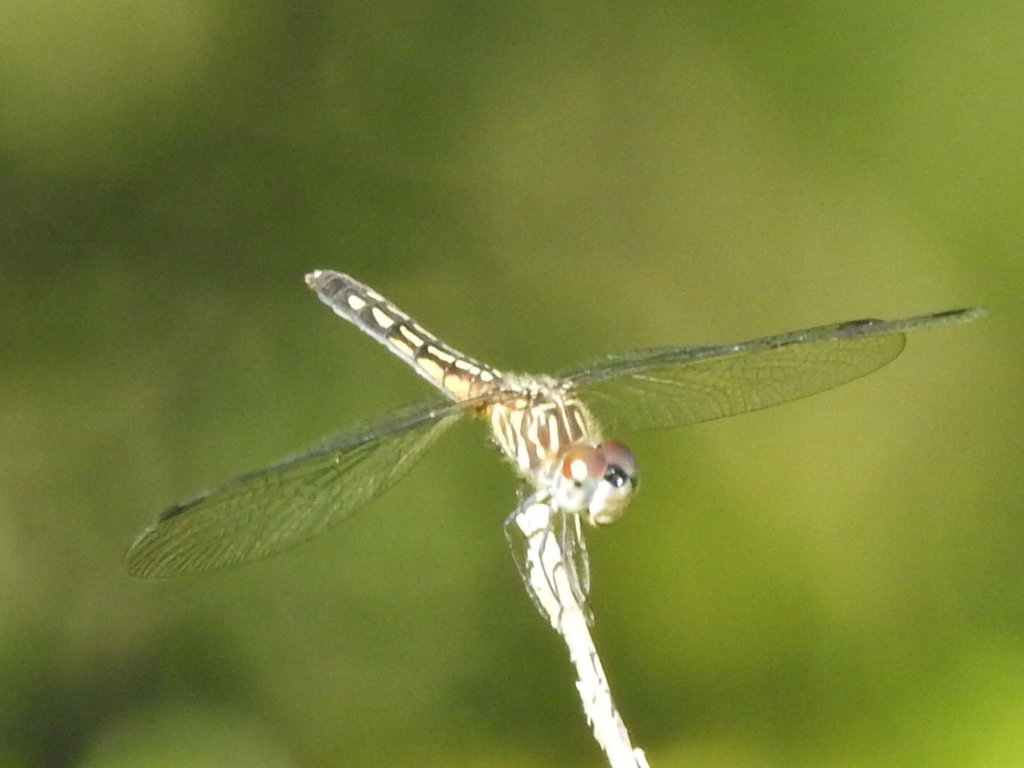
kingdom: Animalia
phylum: Arthropoda
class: Insecta
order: Odonata
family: Libellulidae
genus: Pachydiplax
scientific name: Pachydiplax longipennis
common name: Blue dasher
